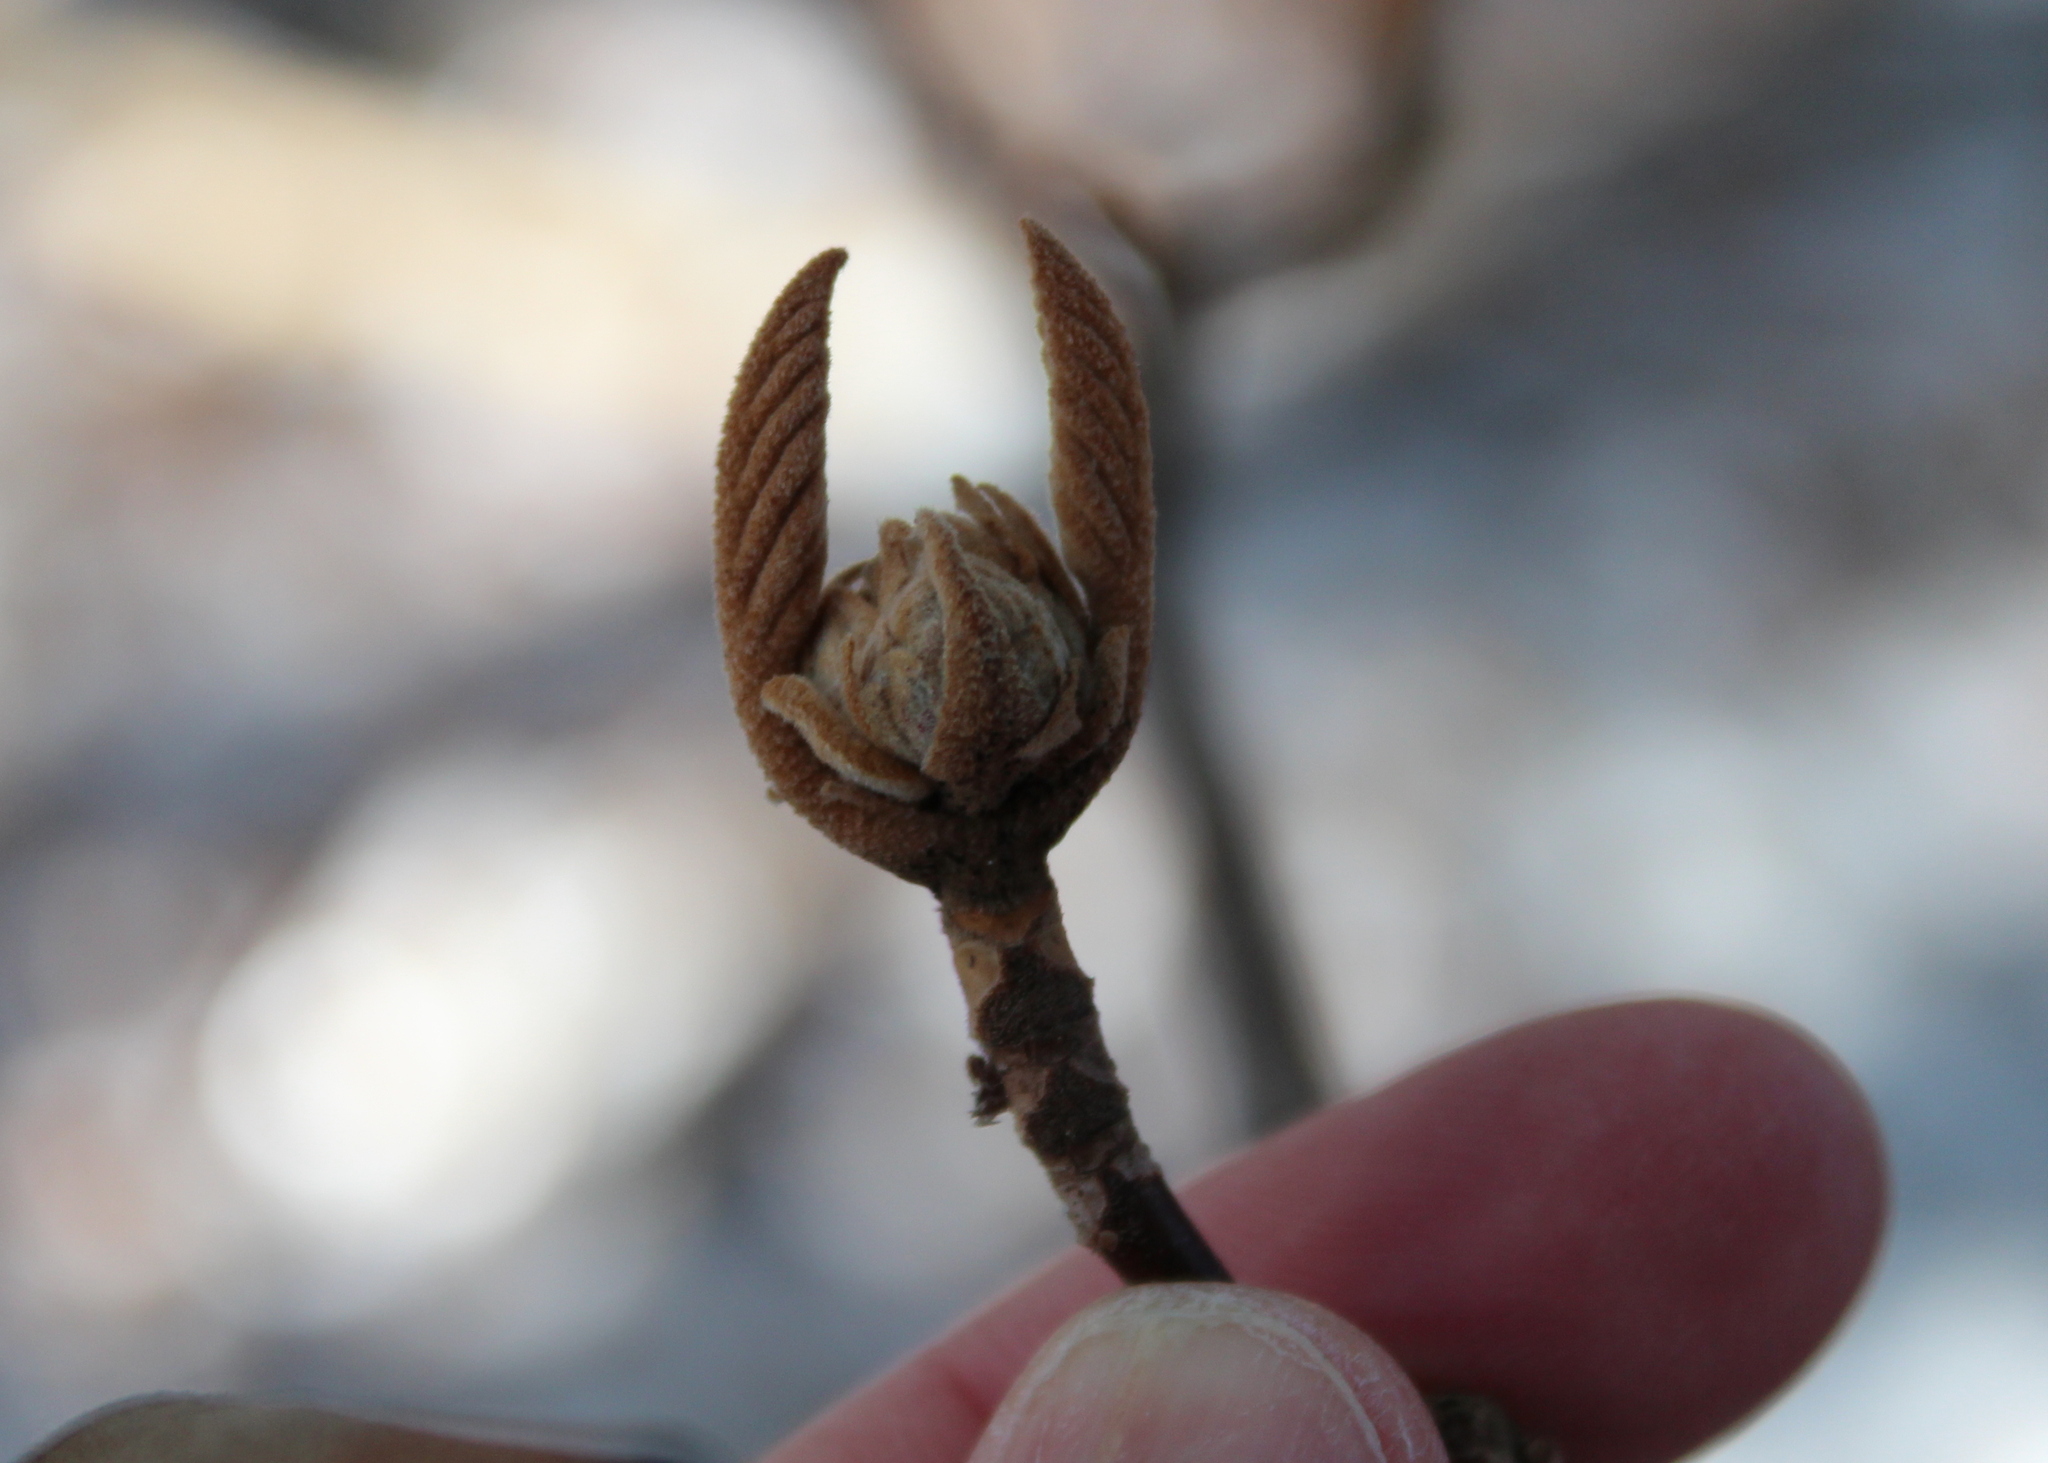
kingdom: Plantae
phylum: Tracheophyta
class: Magnoliopsida
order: Dipsacales
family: Viburnaceae
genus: Viburnum
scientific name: Viburnum lantanoides
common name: Hobblebush
